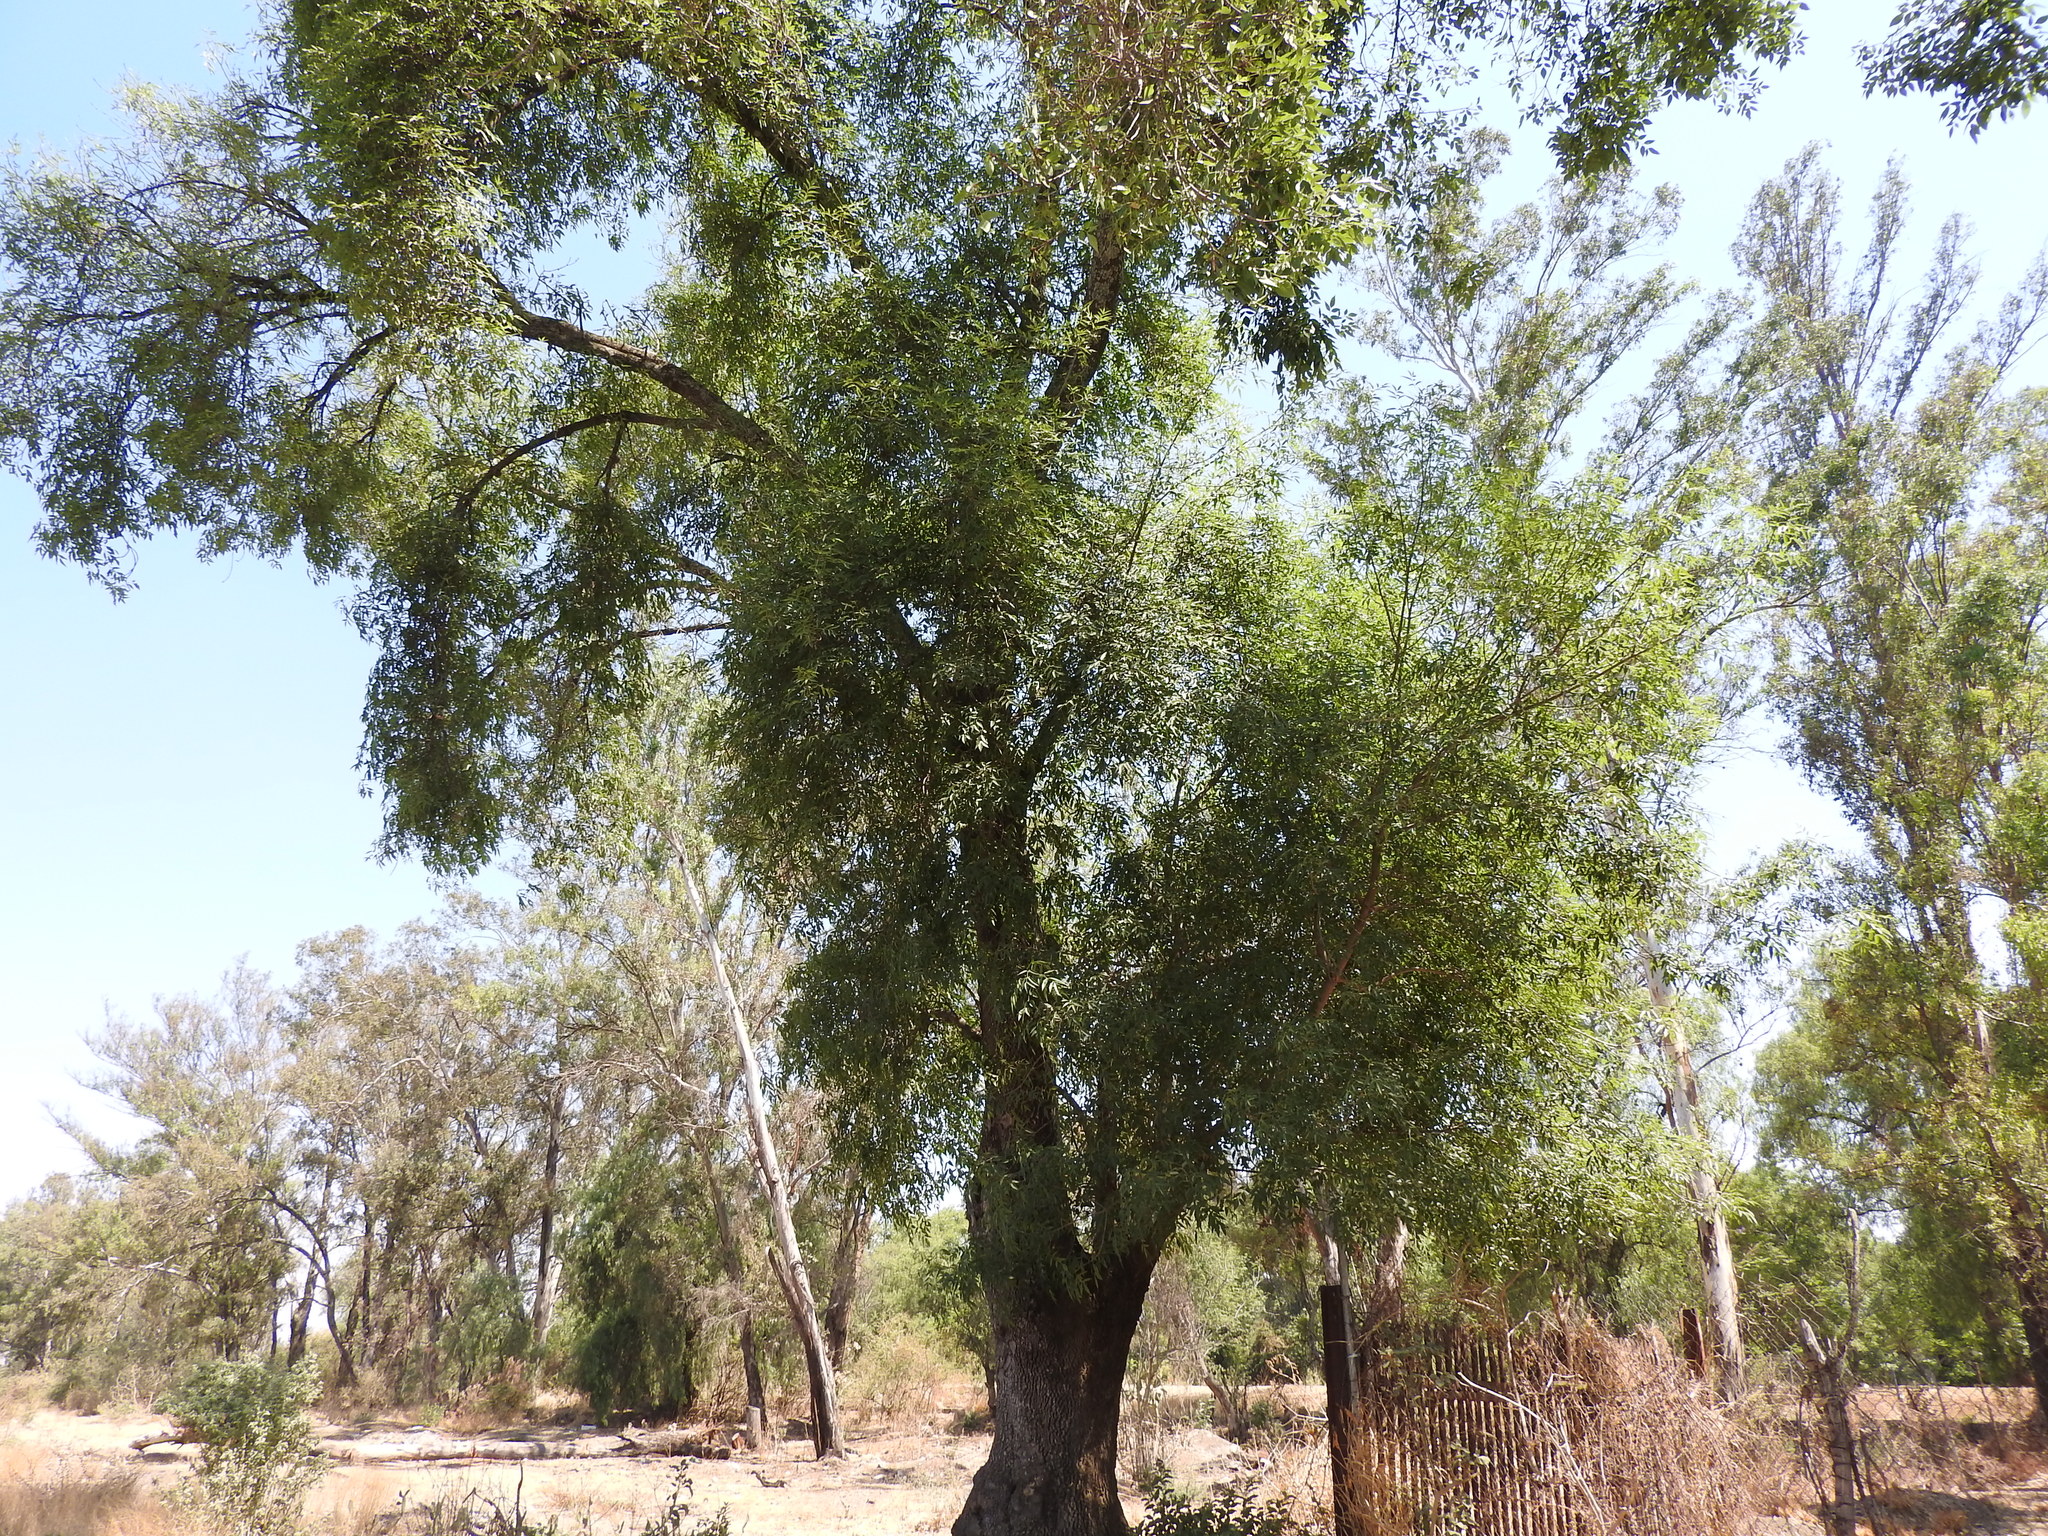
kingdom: Plantae
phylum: Tracheophyta
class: Magnoliopsida
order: Lamiales
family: Oleaceae
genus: Fraxinus
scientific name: Fraxinus uhdei
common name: Shamel ash
